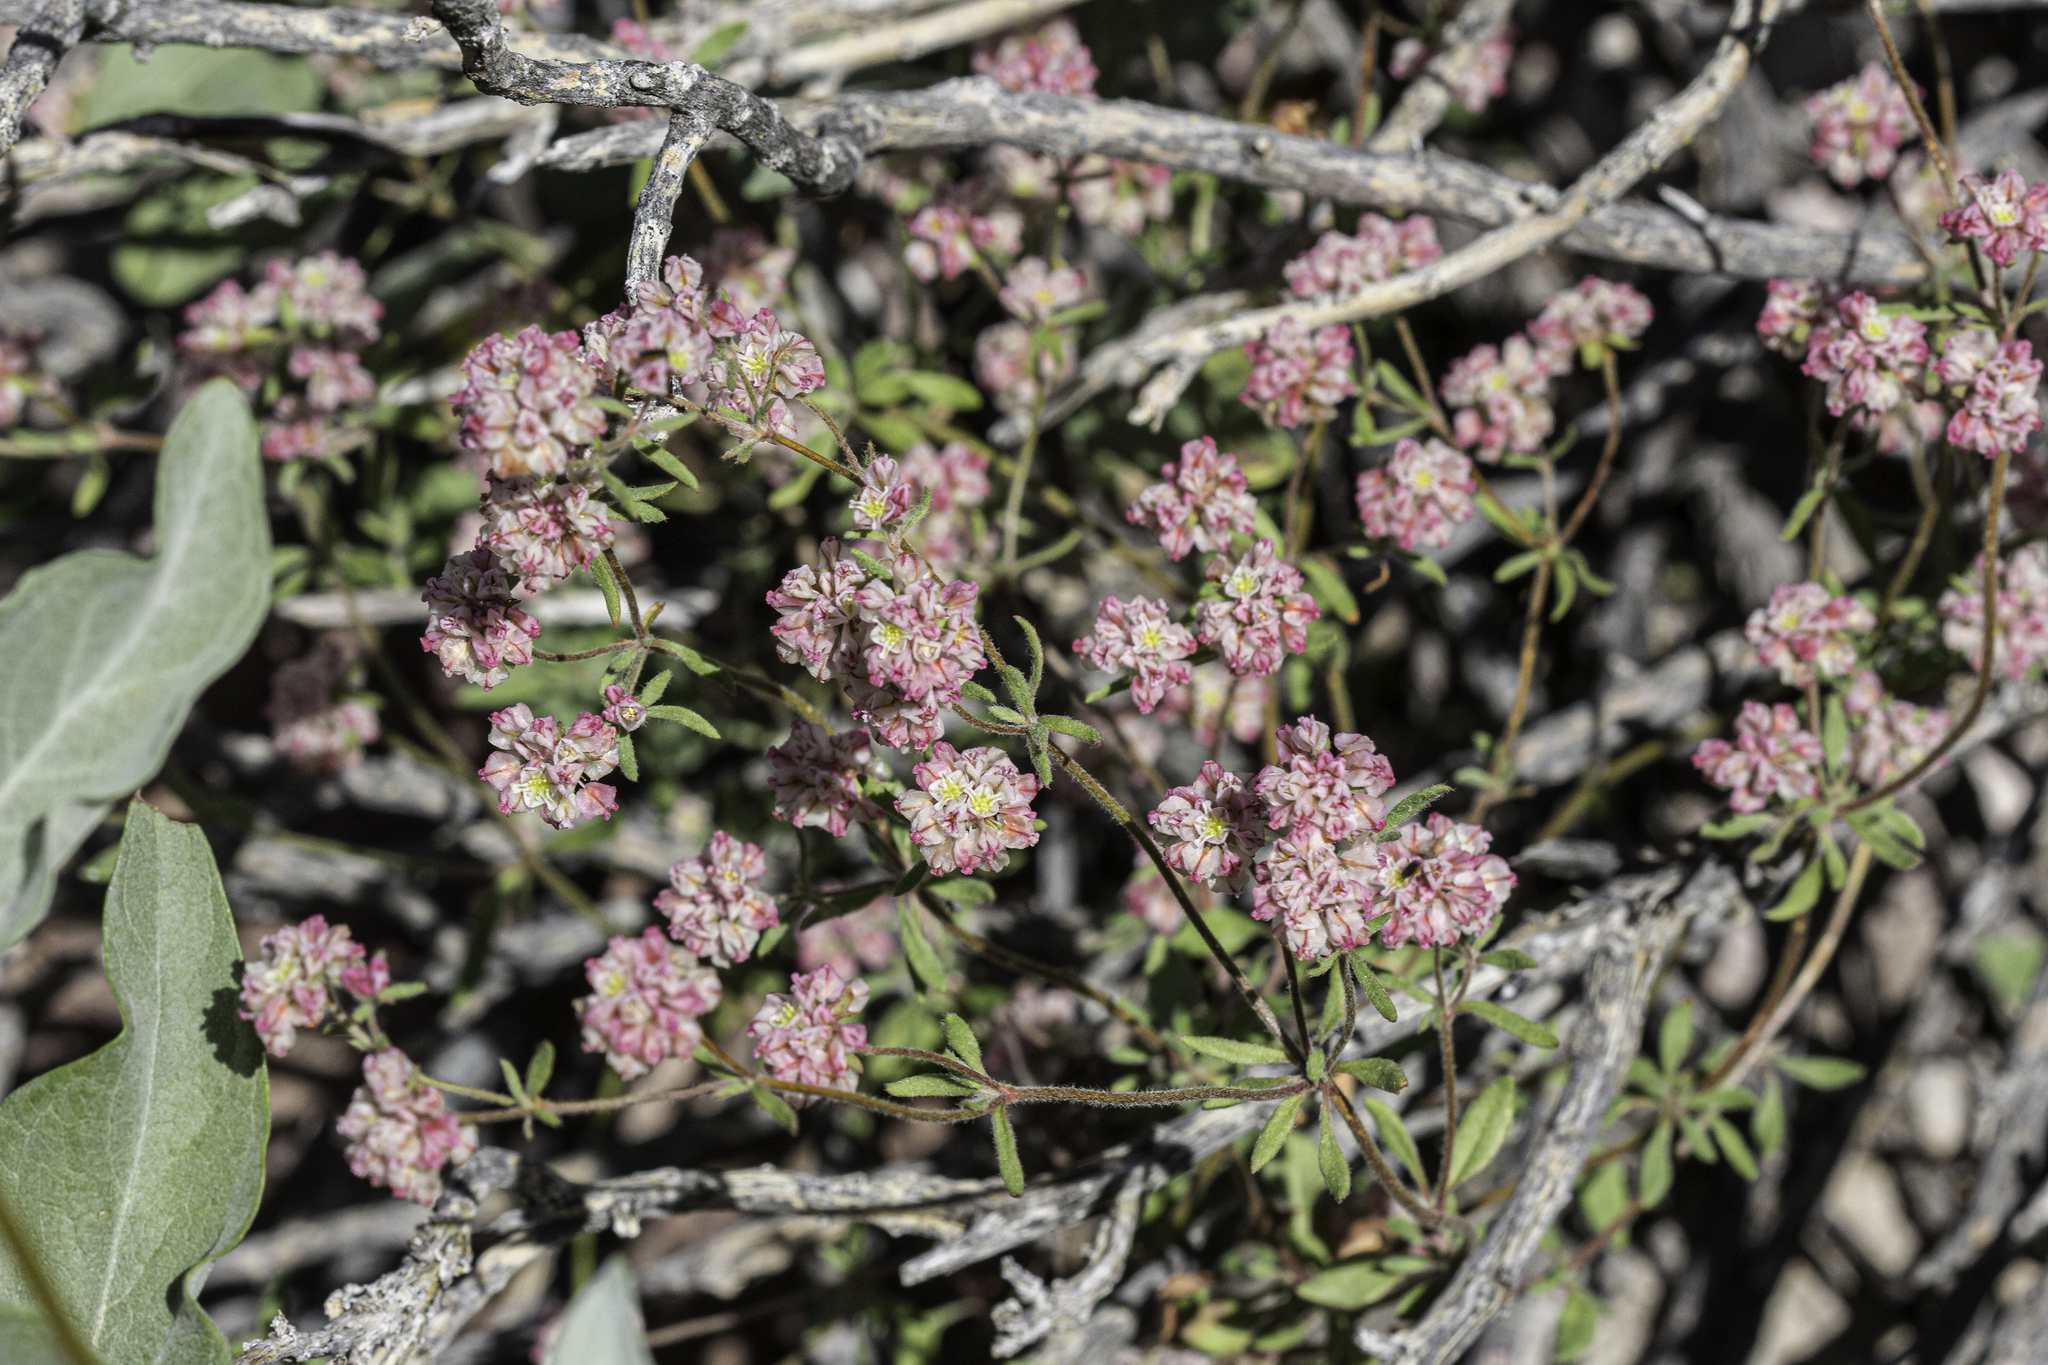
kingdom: Plantae
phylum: Tracheophyta
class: Magnoliopsida
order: Caryophyllales
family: Polygonaceae
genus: Eriogonum
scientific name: Eriogonum abertianum
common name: Abert's wild buckwheat
